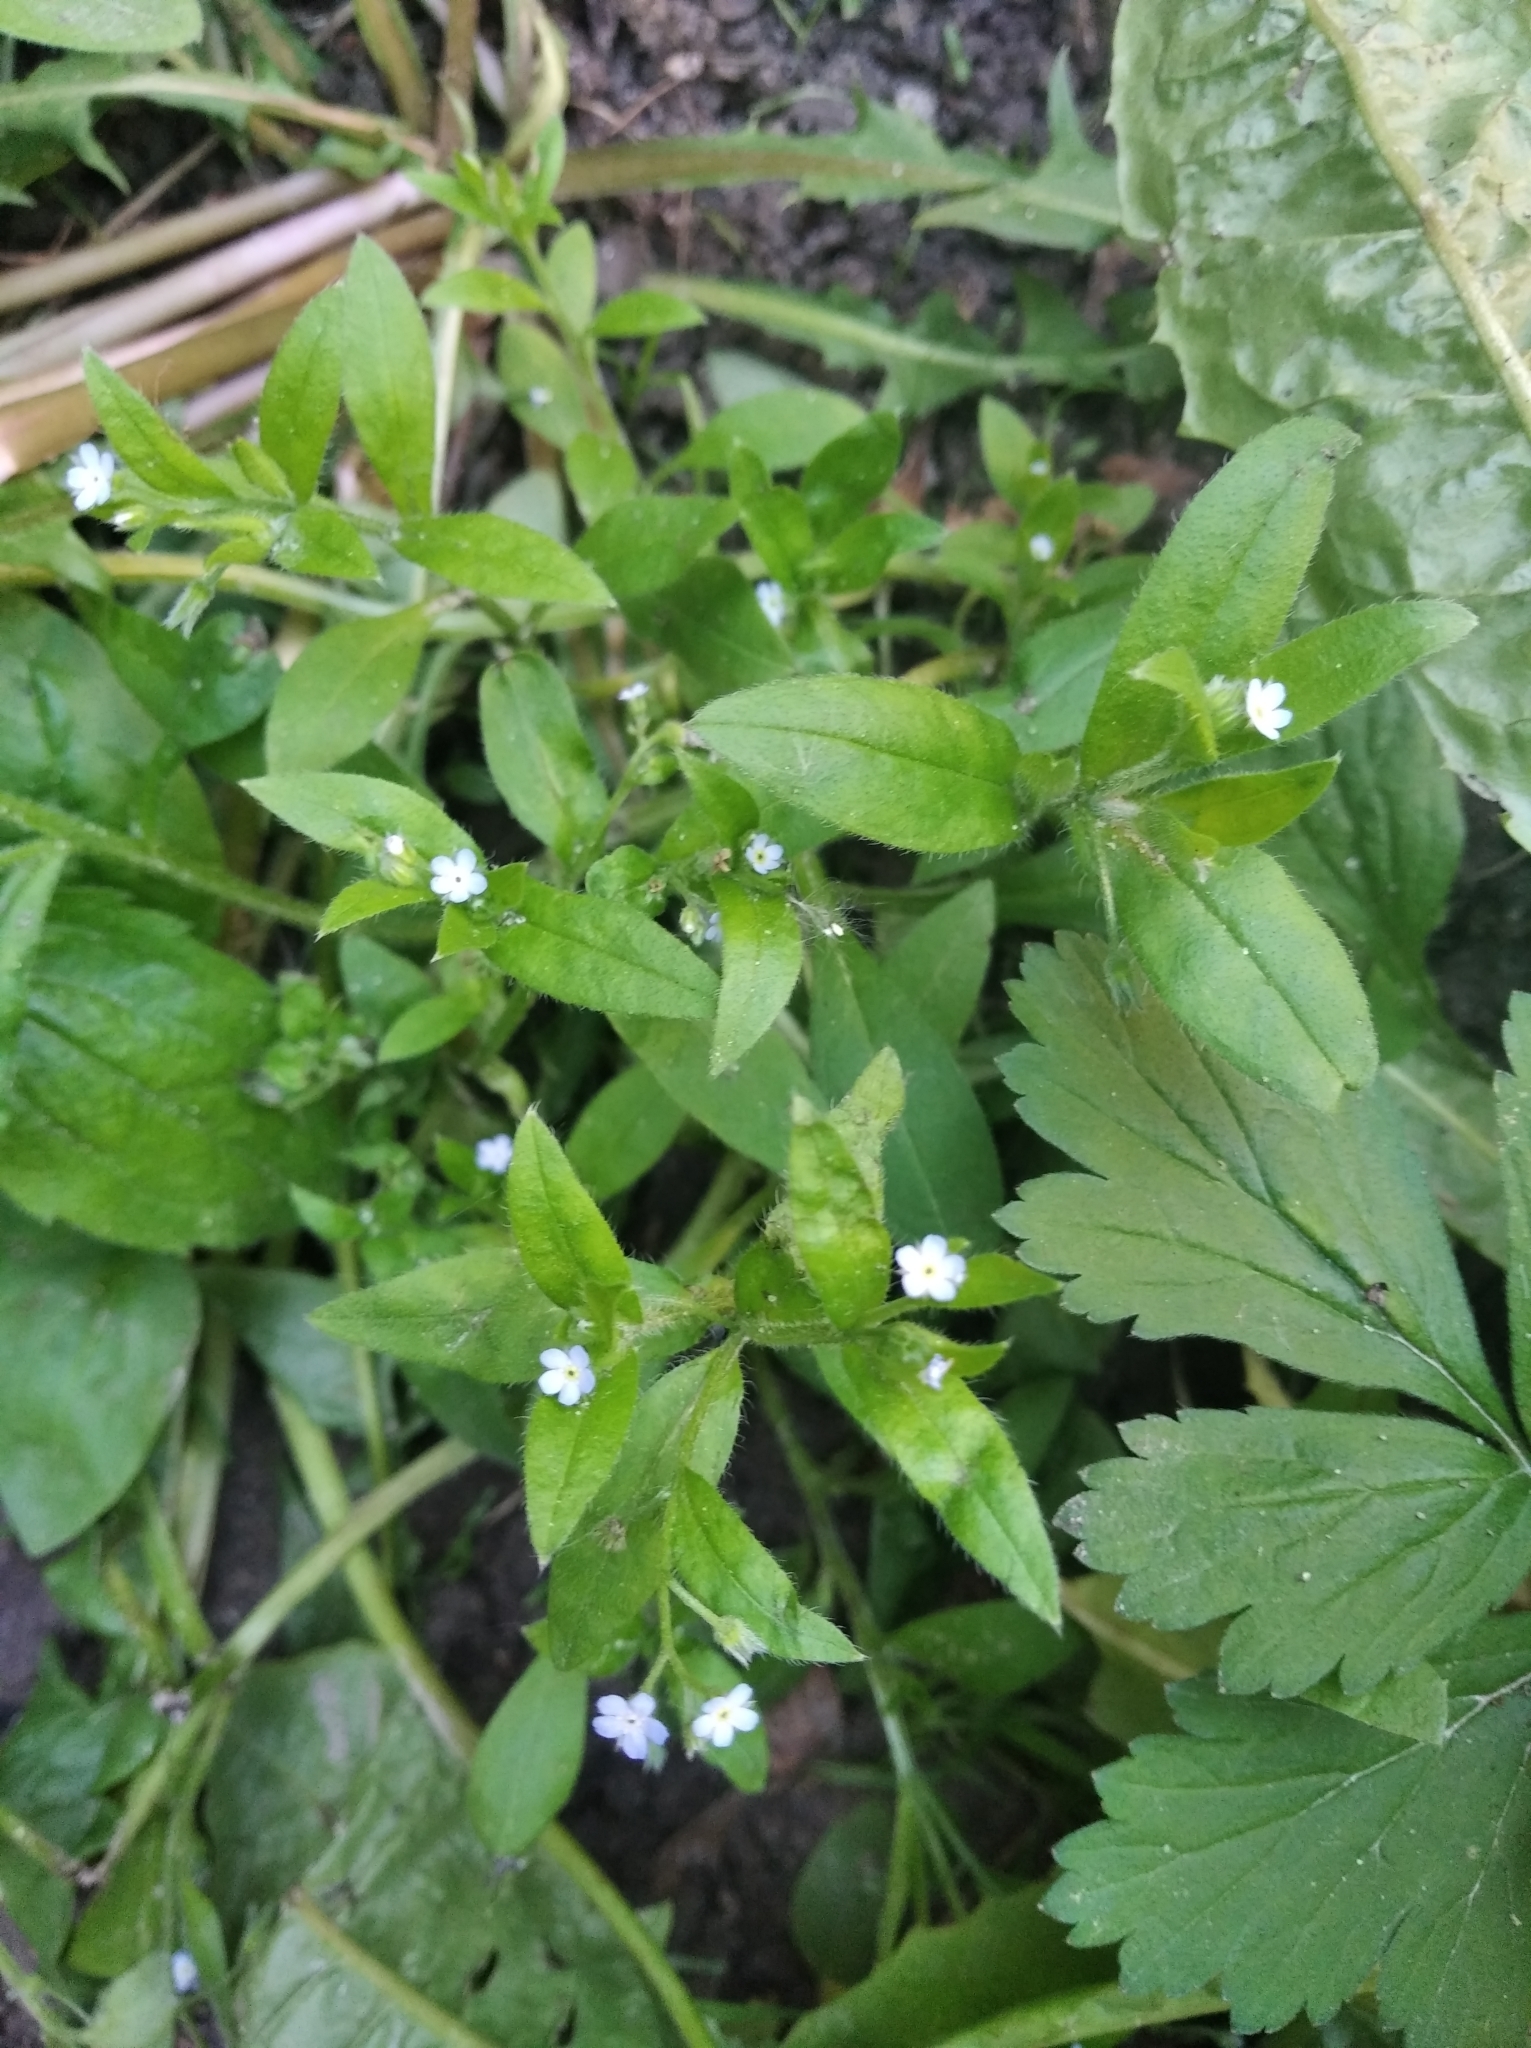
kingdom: Plantae
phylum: Tracheophyta
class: Magnoliopsida
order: Boraginales
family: Boraginaceae
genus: Myosotis
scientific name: Myosotis sparsiflora
